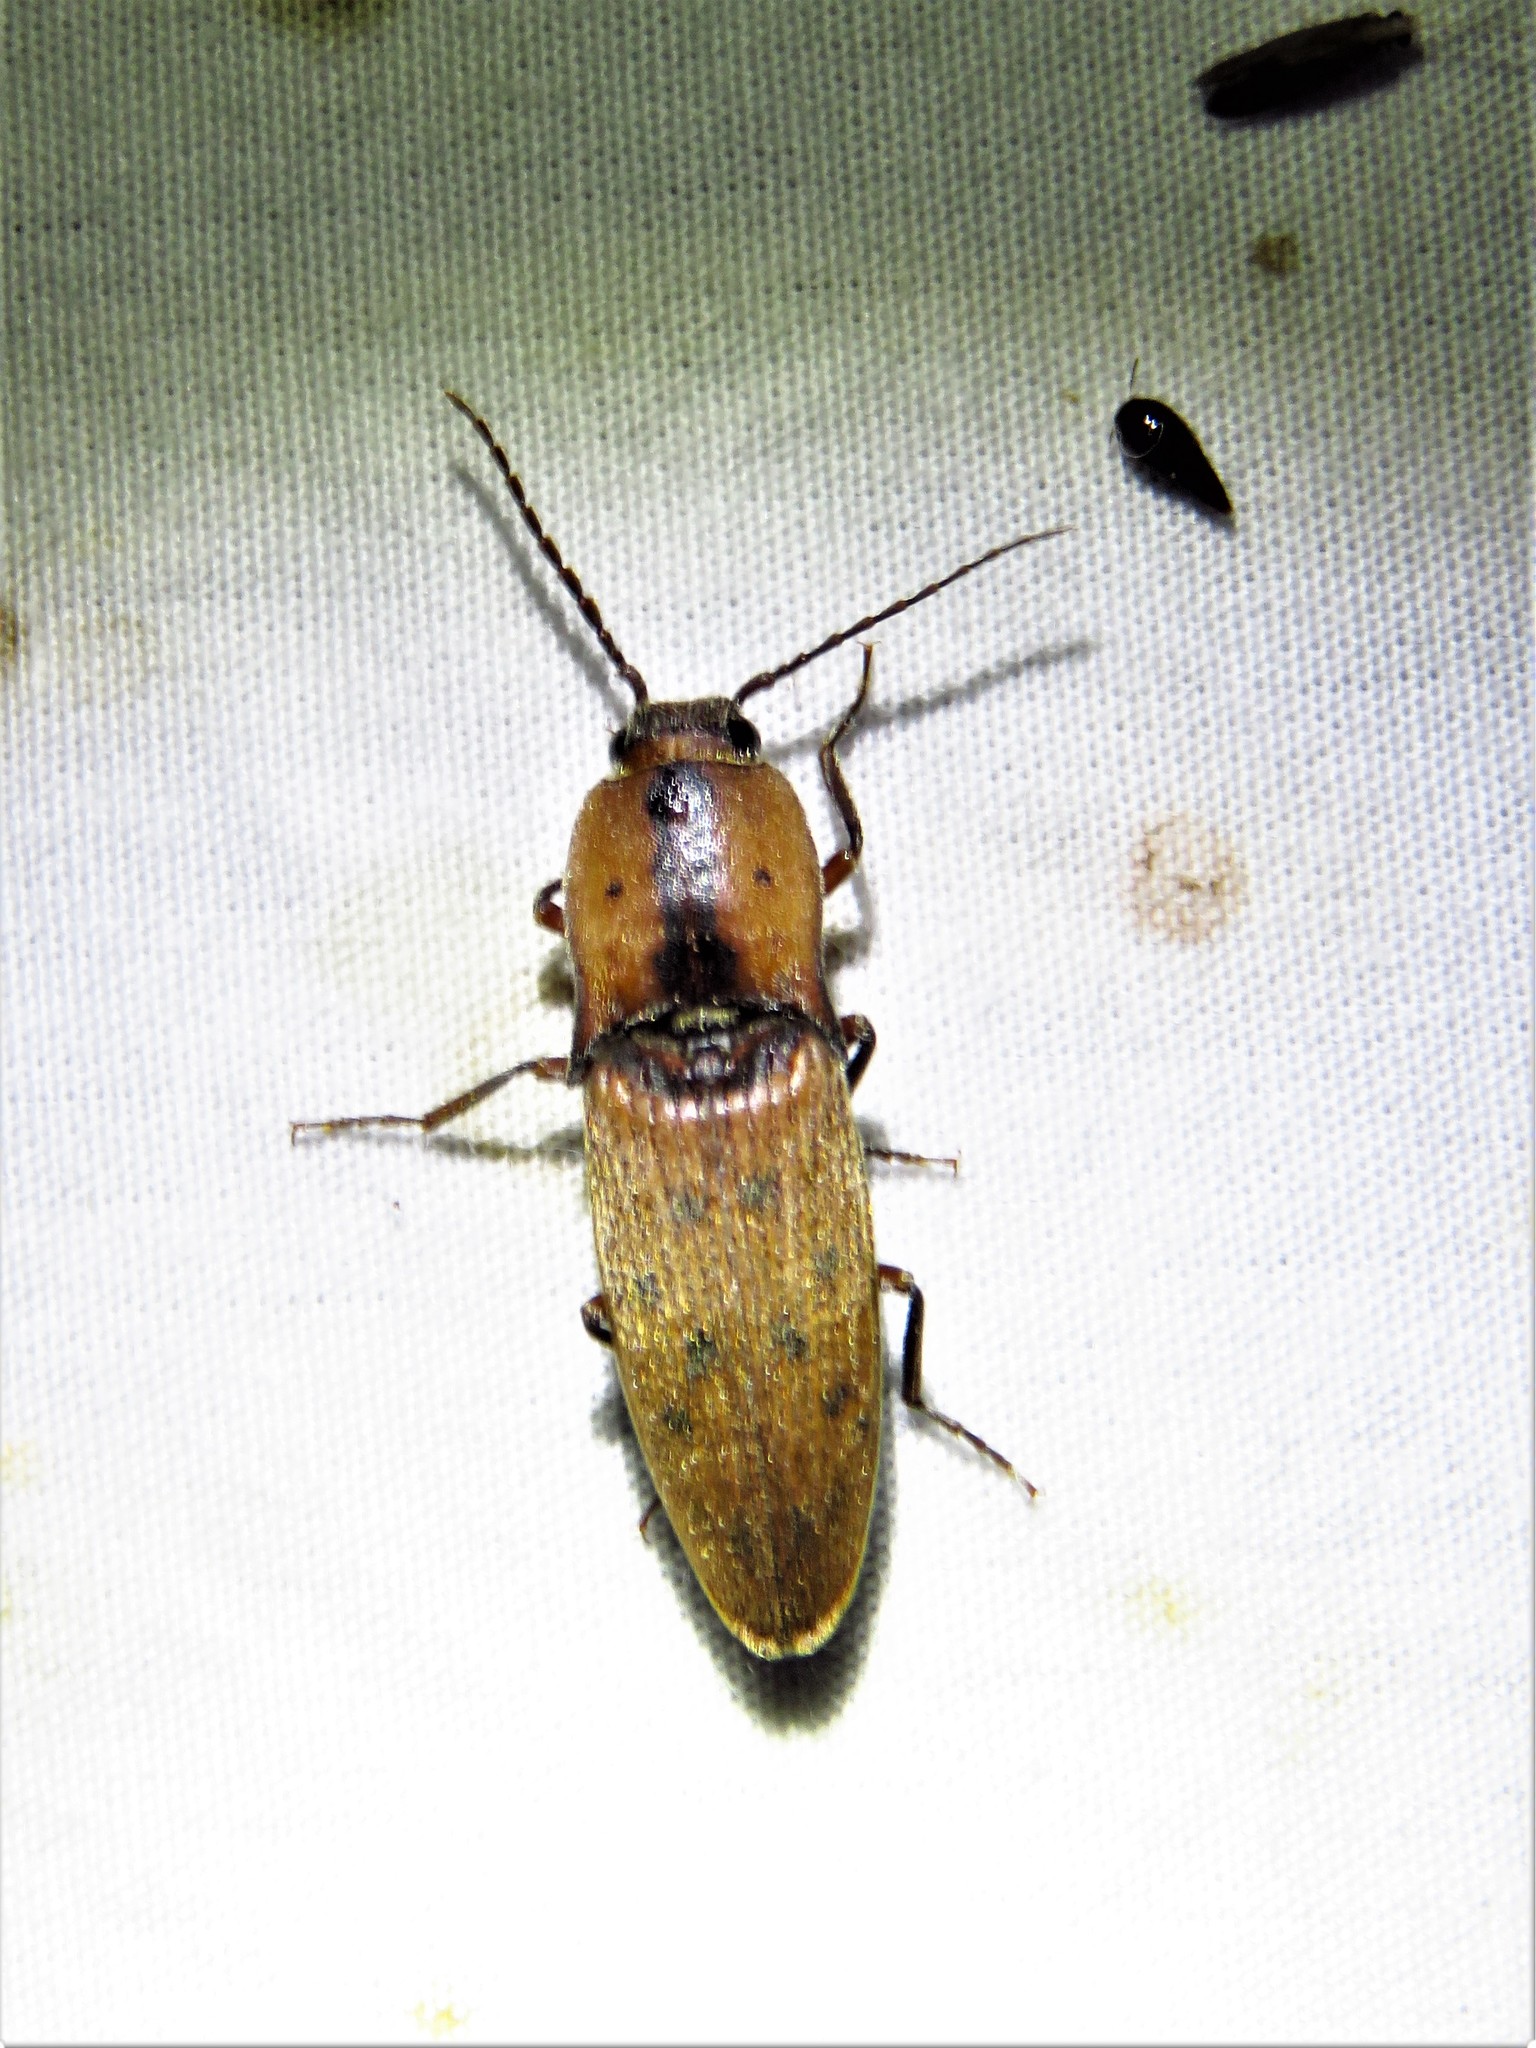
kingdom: Animalia
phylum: Arthropoda
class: Insecta
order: Coleoptera
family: Elateridae
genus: Monocrepidius
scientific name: Monocrepidius
